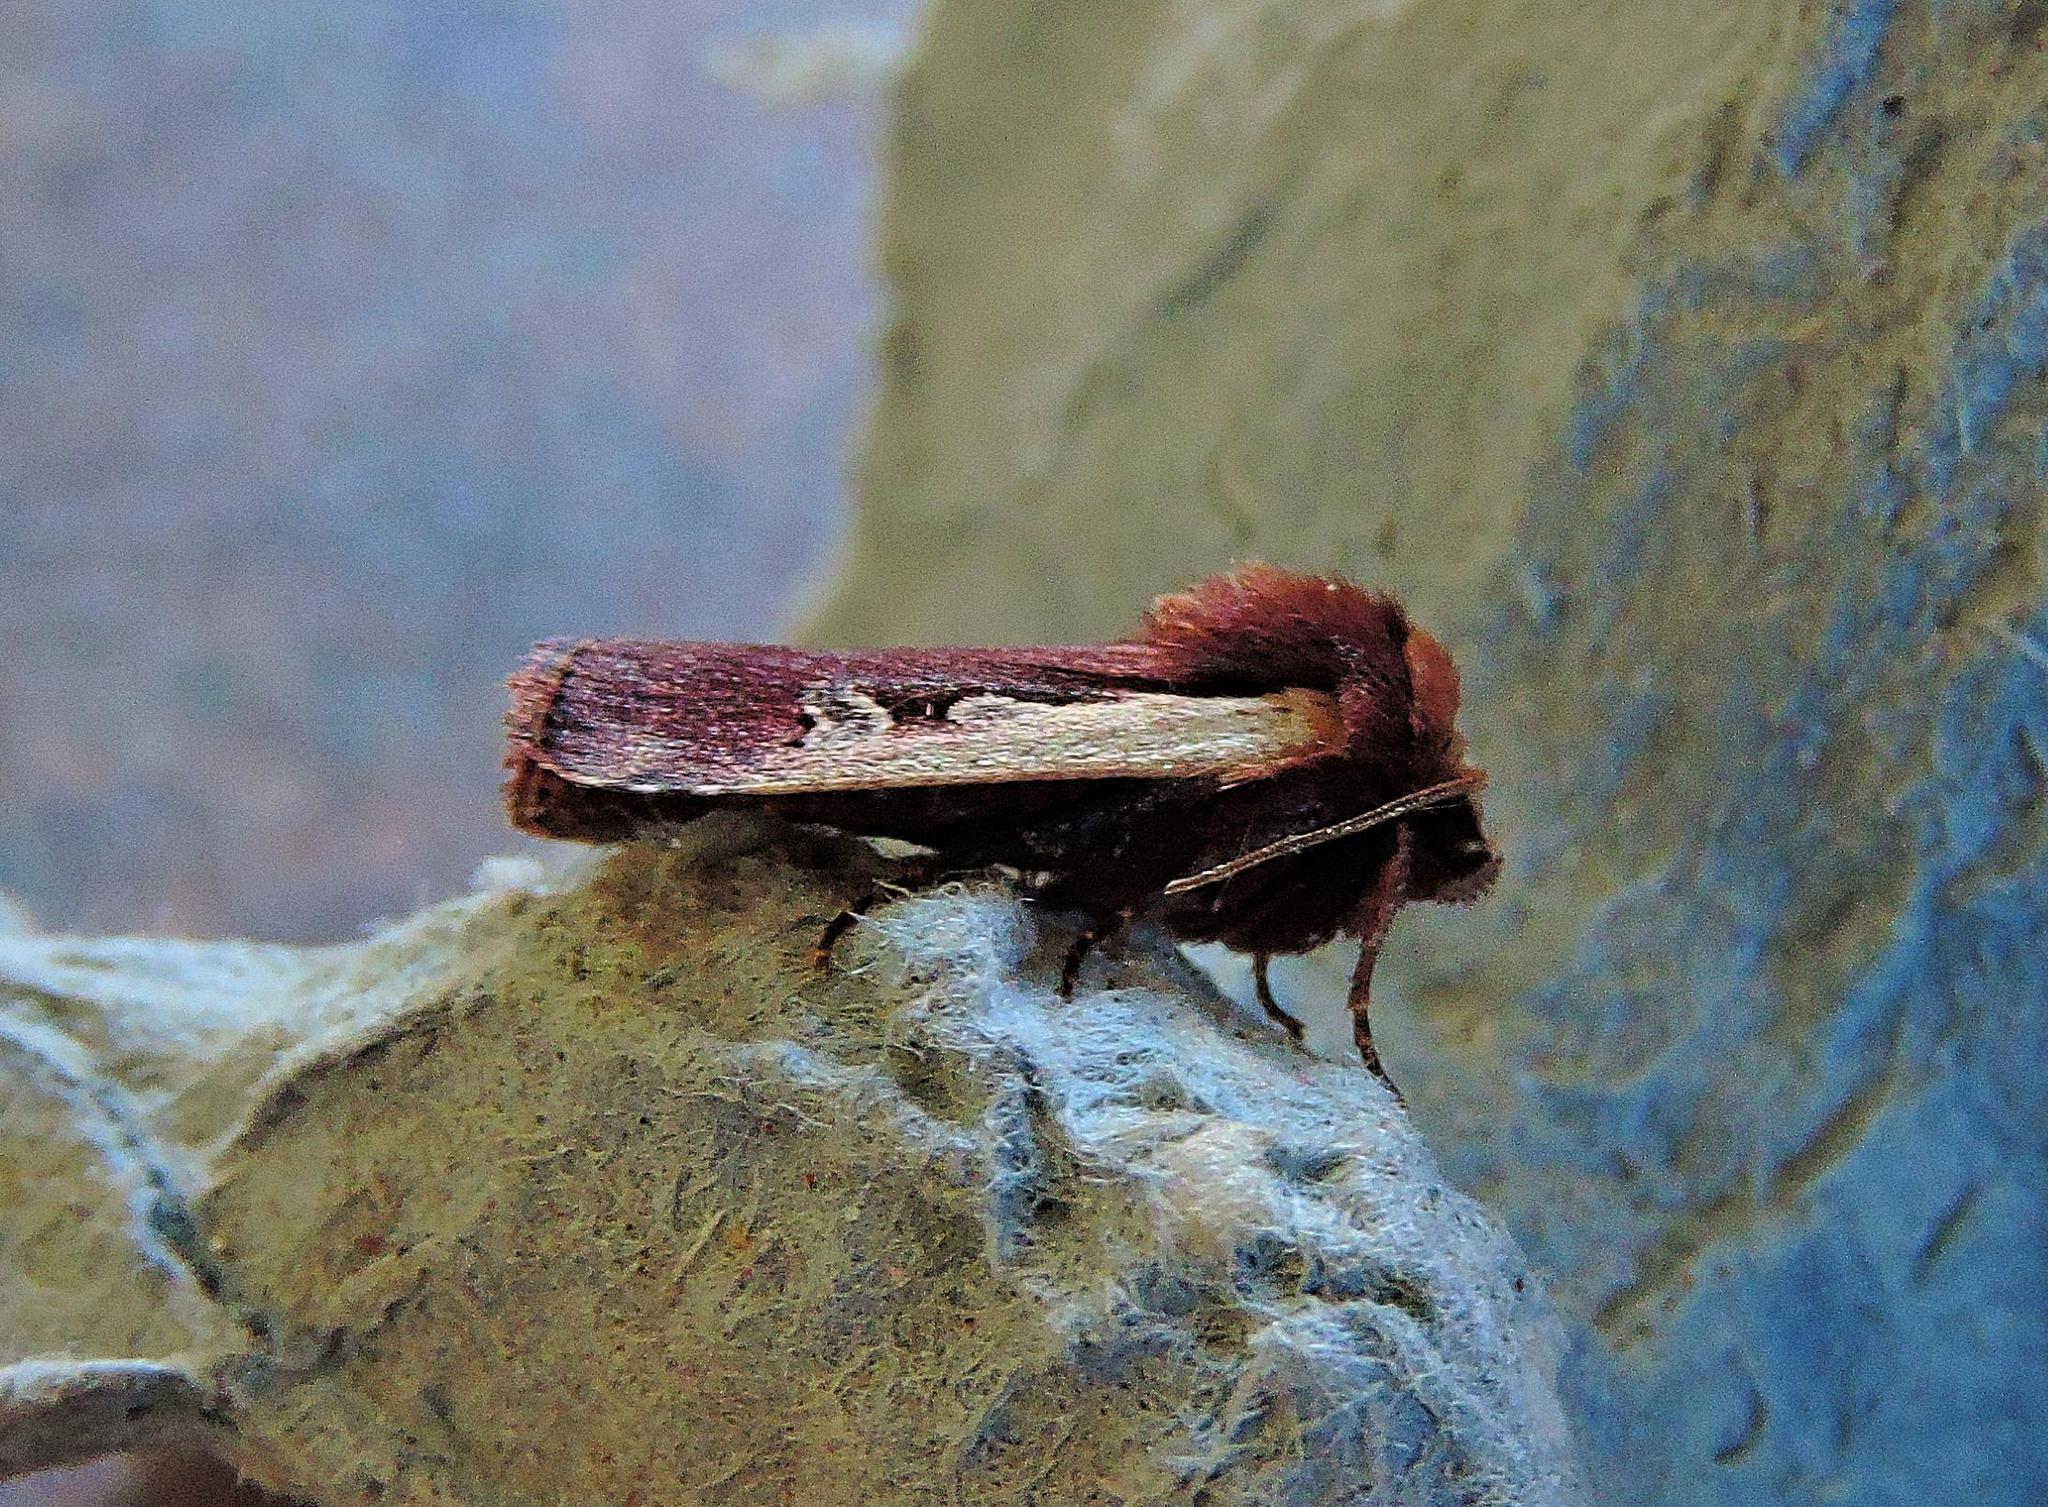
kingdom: Animalia
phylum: Arthropoda
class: Insecta
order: Lepidoptera
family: Noctuidae
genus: Ochropleura
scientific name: Ochropleura plecta
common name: Flame shoulder
